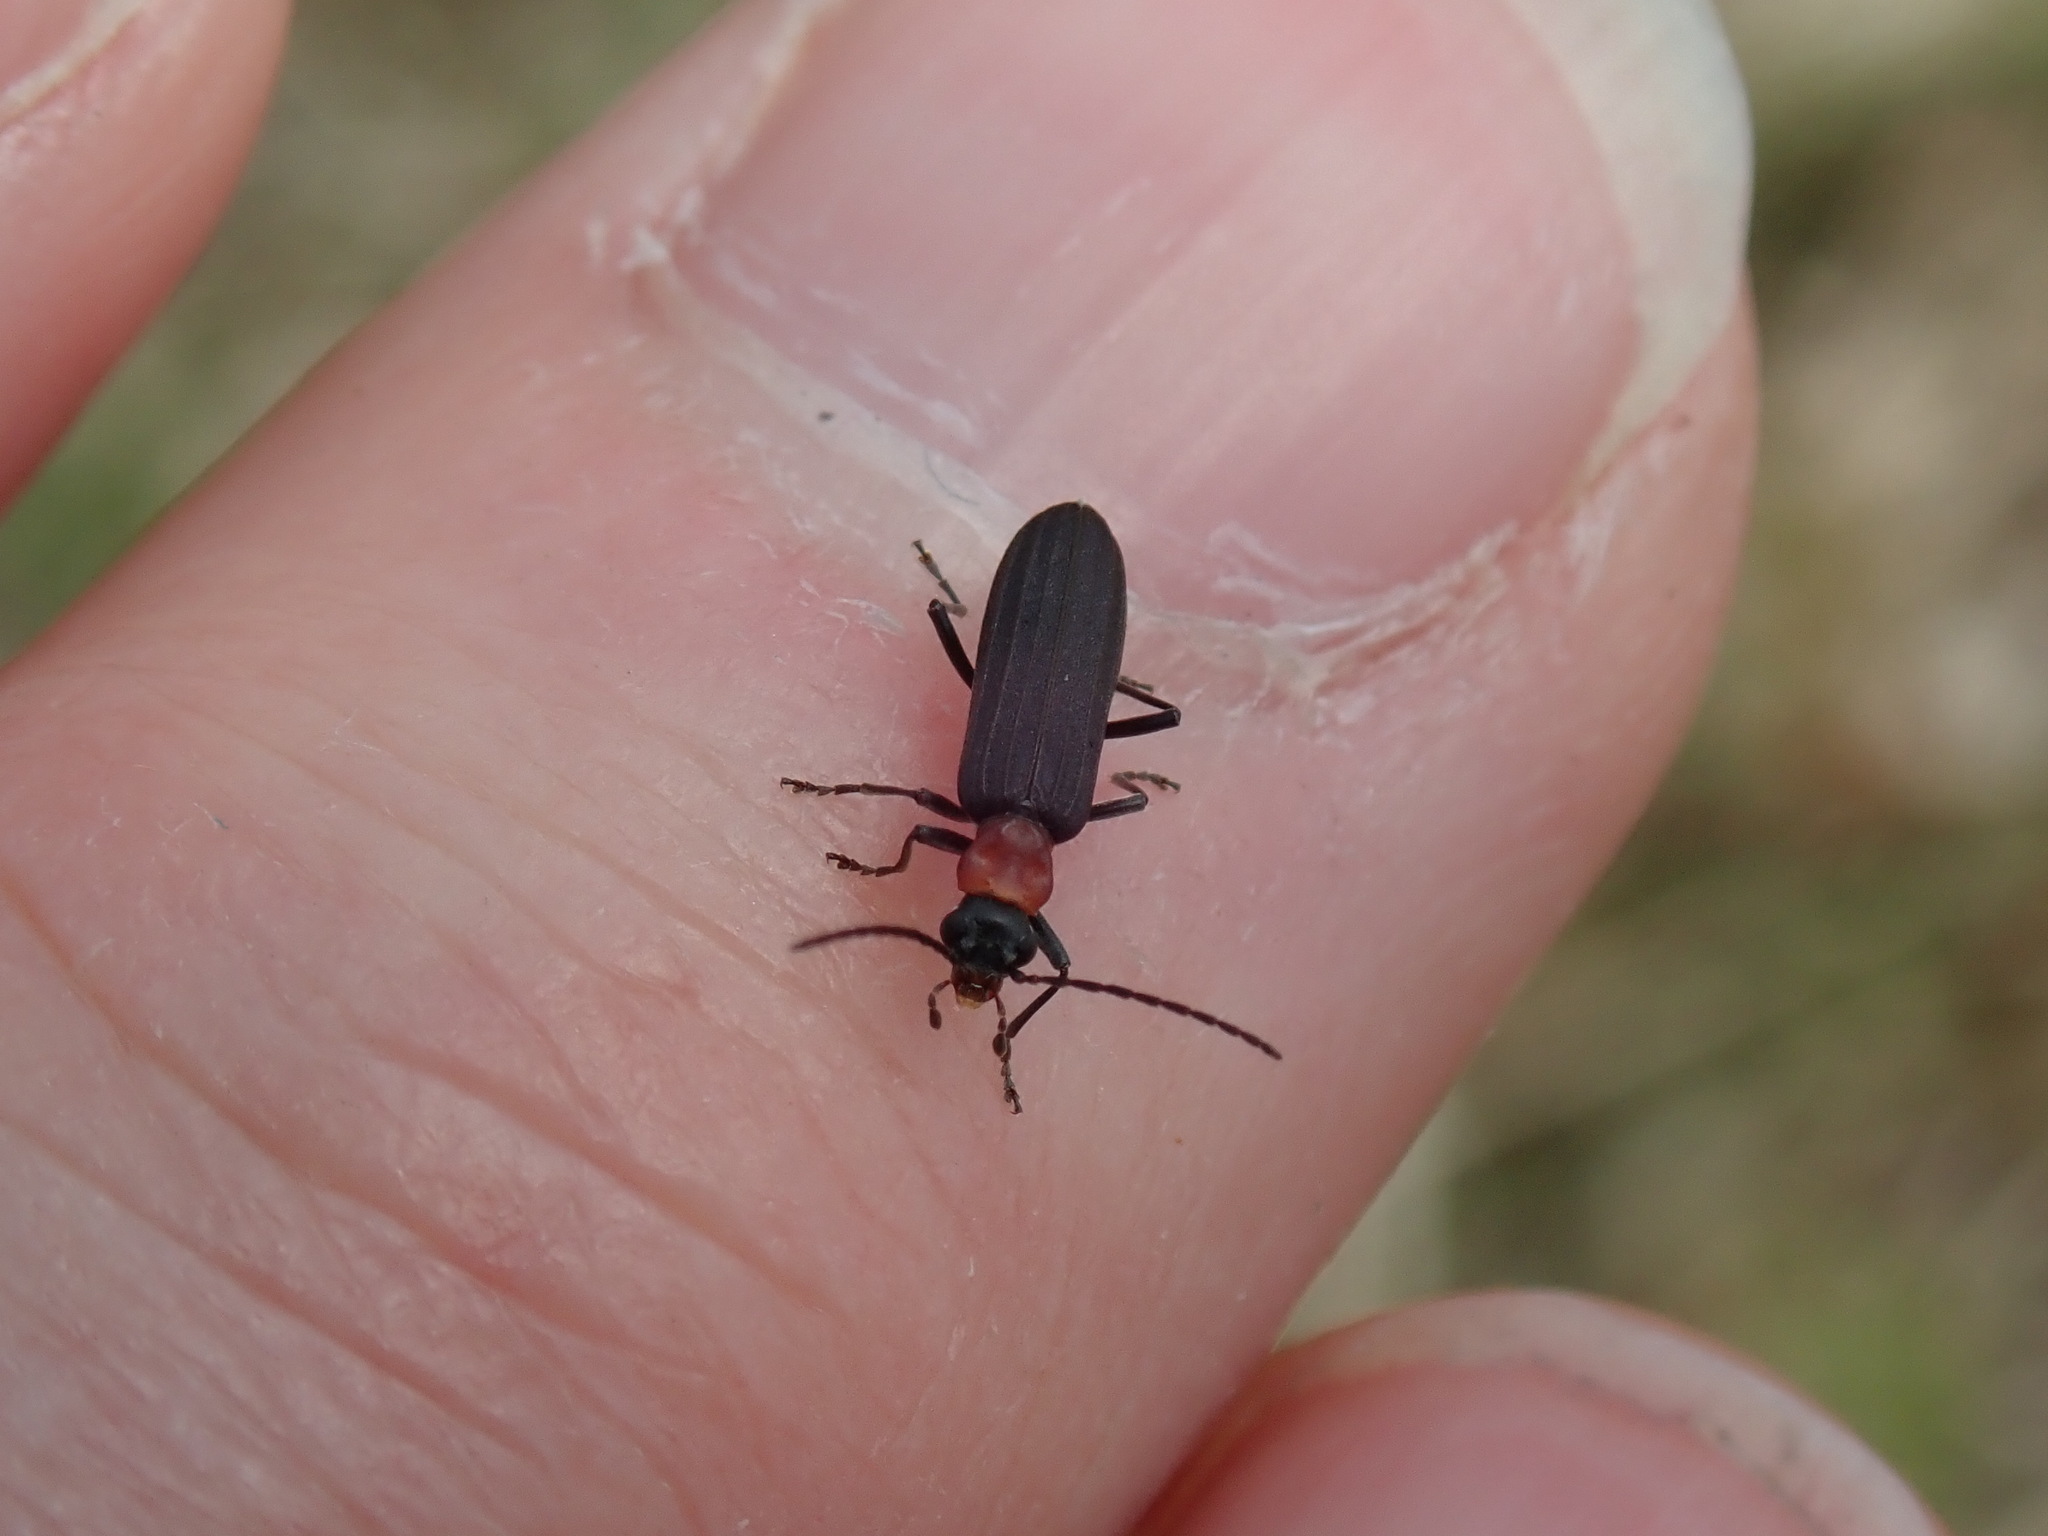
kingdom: Animalia
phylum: Arthropoda
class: Insecta
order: Coleoptera
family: Oedemeridae
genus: Ischnomera
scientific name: Ischnomera
